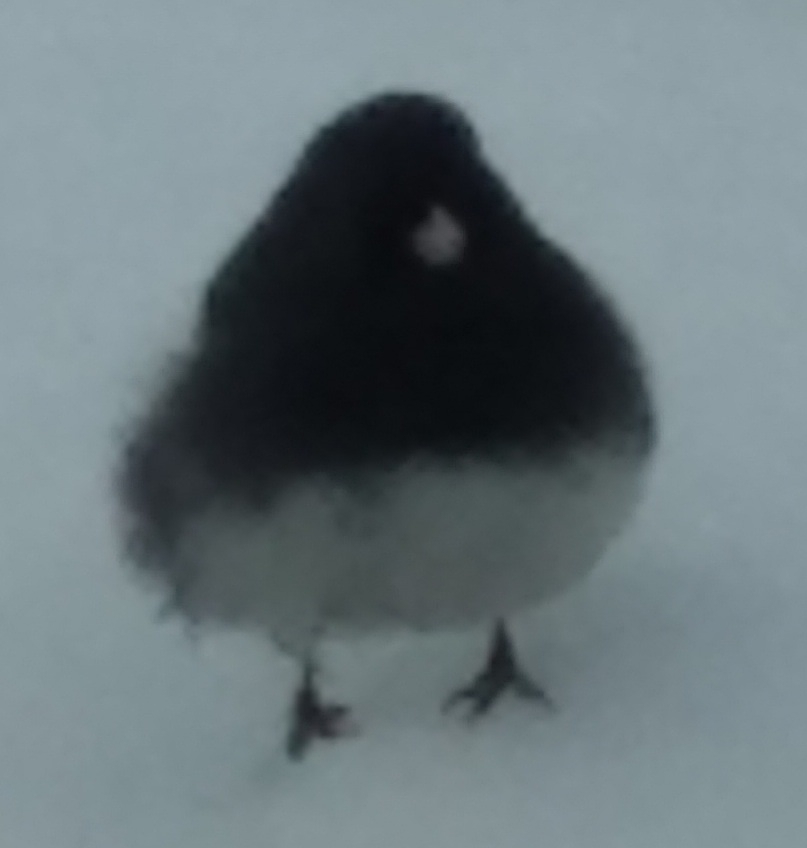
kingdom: Animalia
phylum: Chordata
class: Aves
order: Passeriformes
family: Passerellidae
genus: Junco
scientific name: Junco hyemalis
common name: Dark-eyed junco
